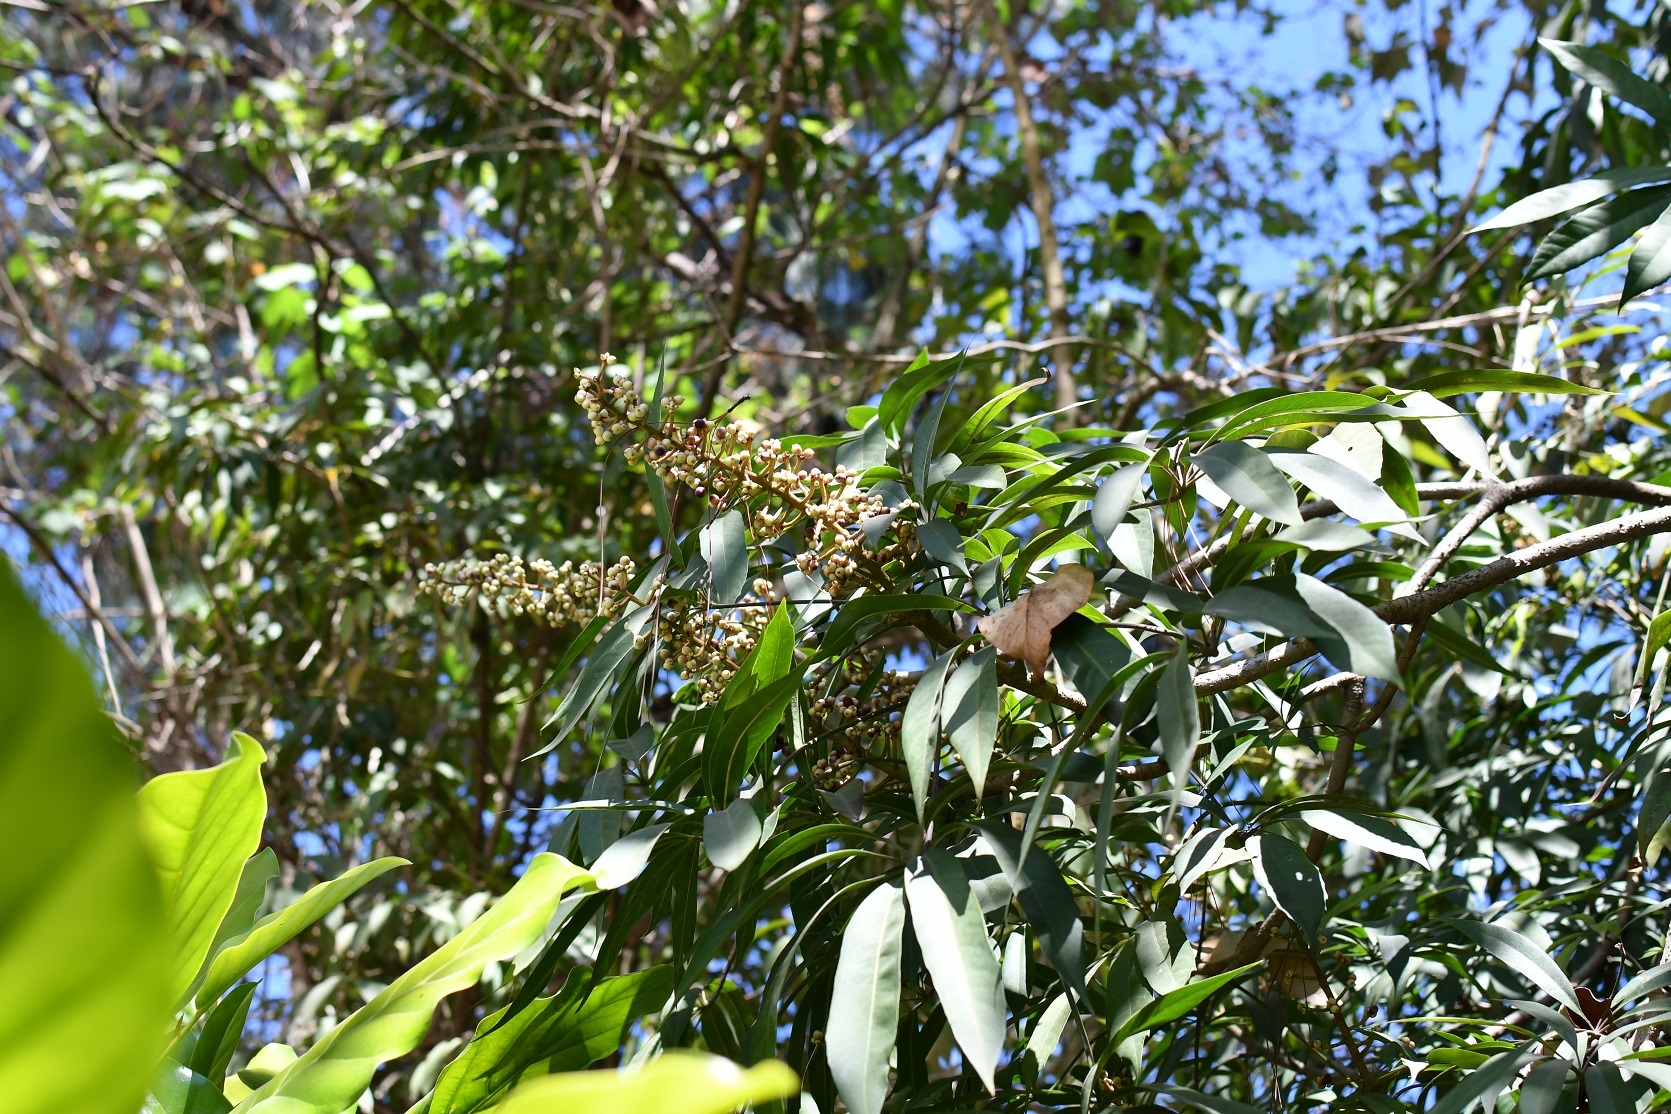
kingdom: Plantae
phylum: Tracheophyta
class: Magnoliopsida
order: Apiales
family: Araliaceae
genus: Oreopanax
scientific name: Oreopanax xalapensis
